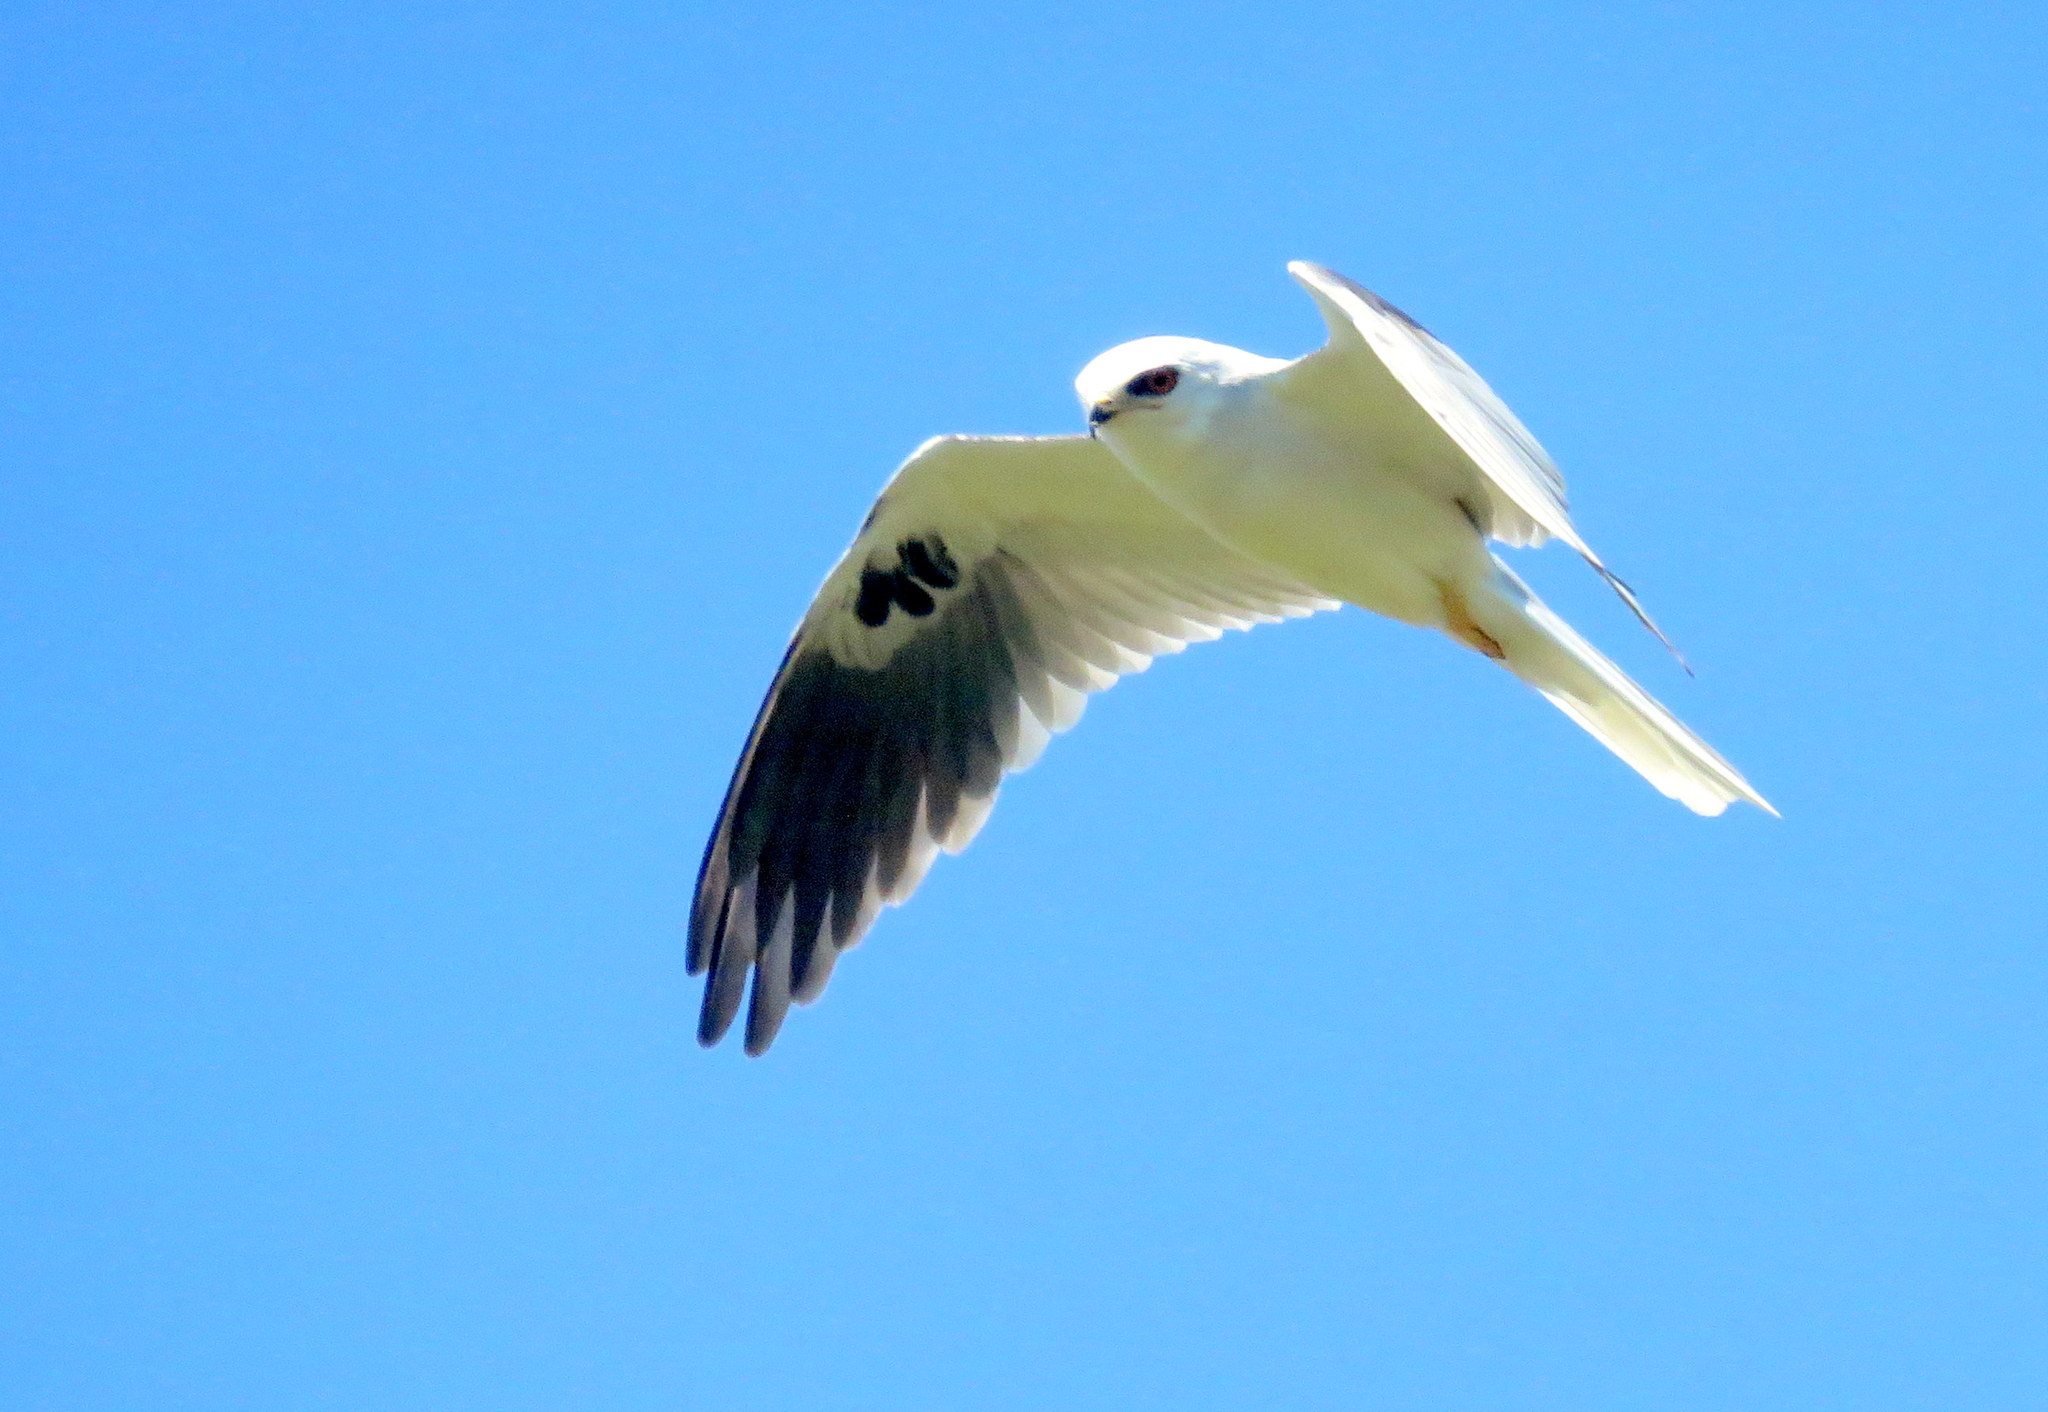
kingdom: Animalia
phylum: Chordata
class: Aves
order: Accipitriformes
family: Accipitridae
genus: Elanus
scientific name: Elanus leucurus
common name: White-tailed kite
